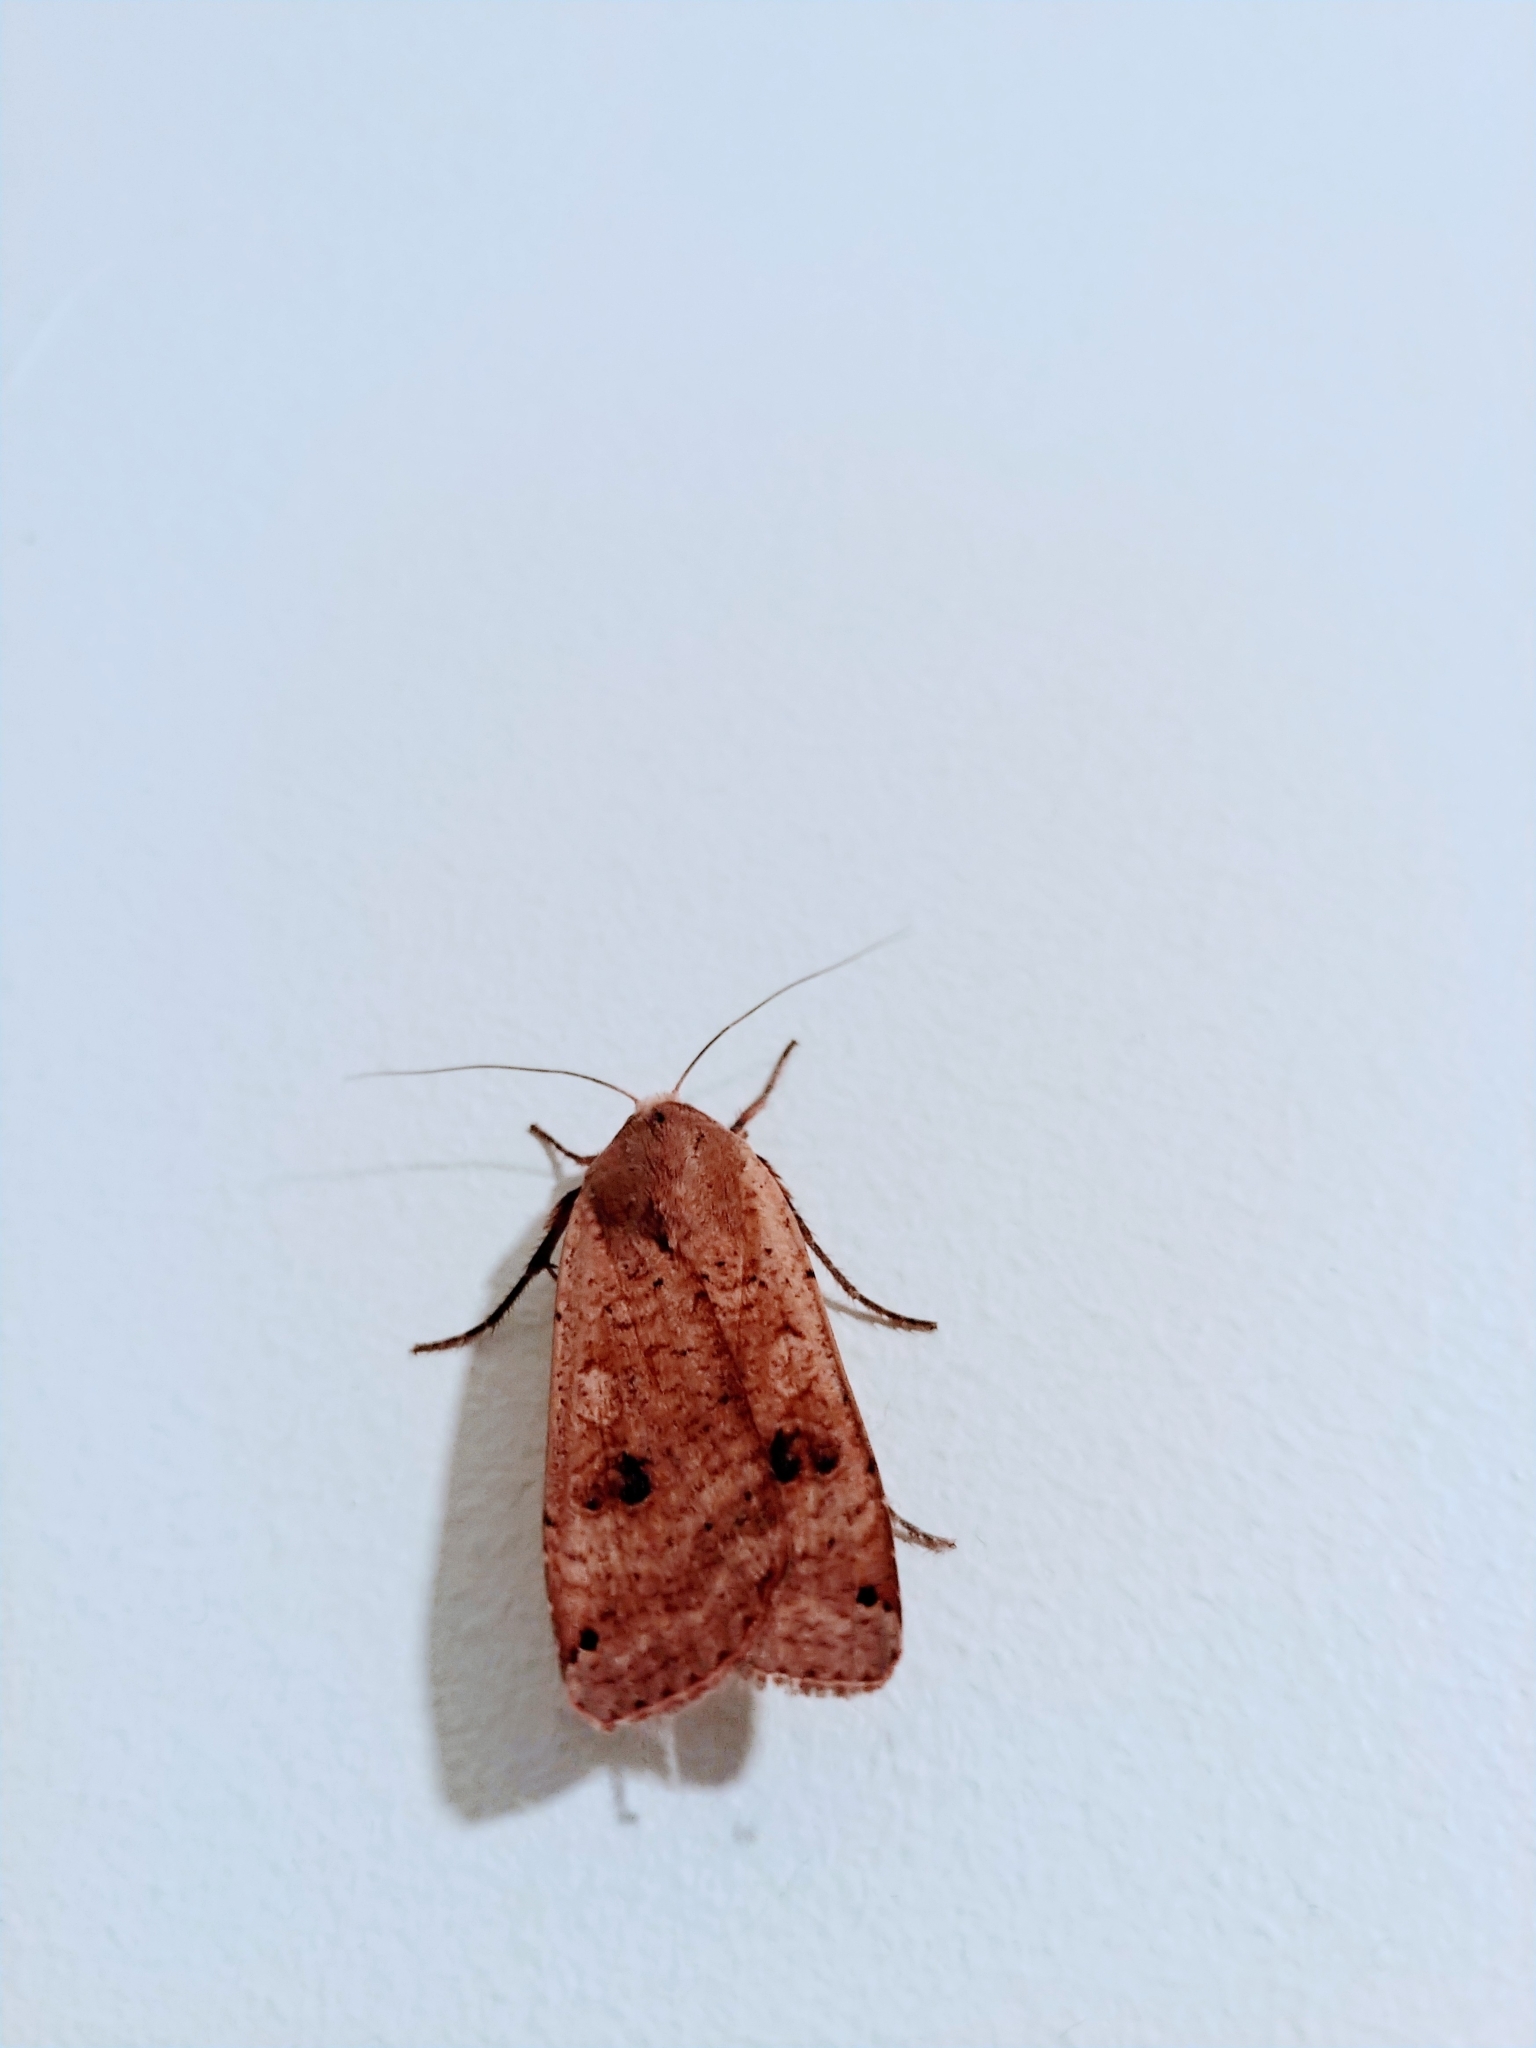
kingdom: Animalia
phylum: Arthropoda
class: Insecta
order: Lepidoptera
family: Noctuidae
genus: Noctua
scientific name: Noctua pronuba
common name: Large yellow underwing
